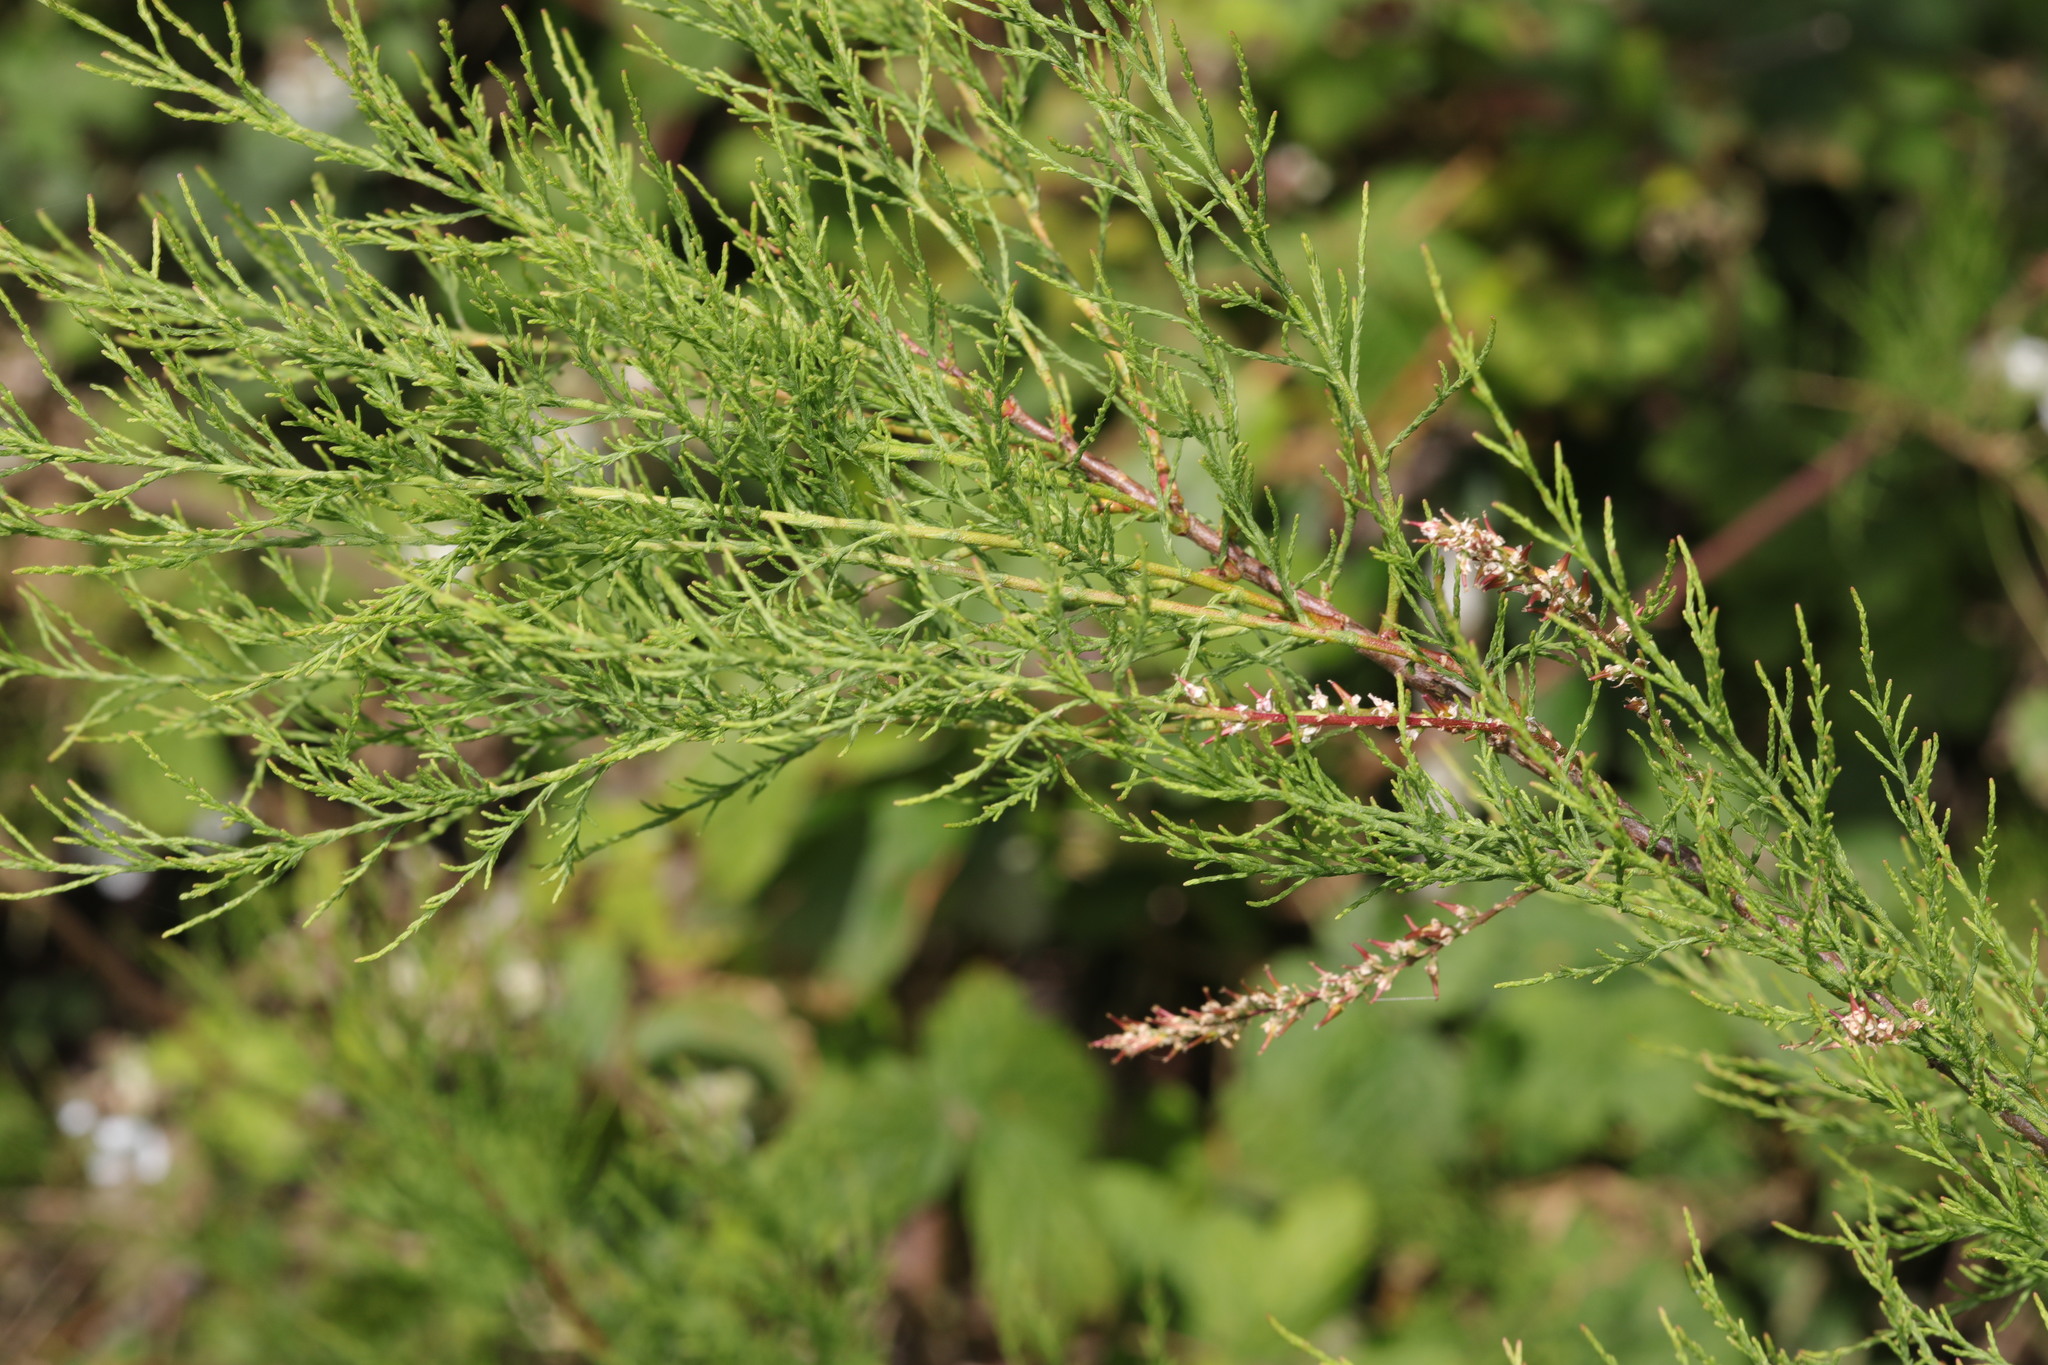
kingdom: Plantae
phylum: Tracheophyta
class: Magnoliopsida
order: Caryophyllales
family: Tamaricaceae
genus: Tamarix
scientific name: Tamarix gallica
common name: Tamarisk
